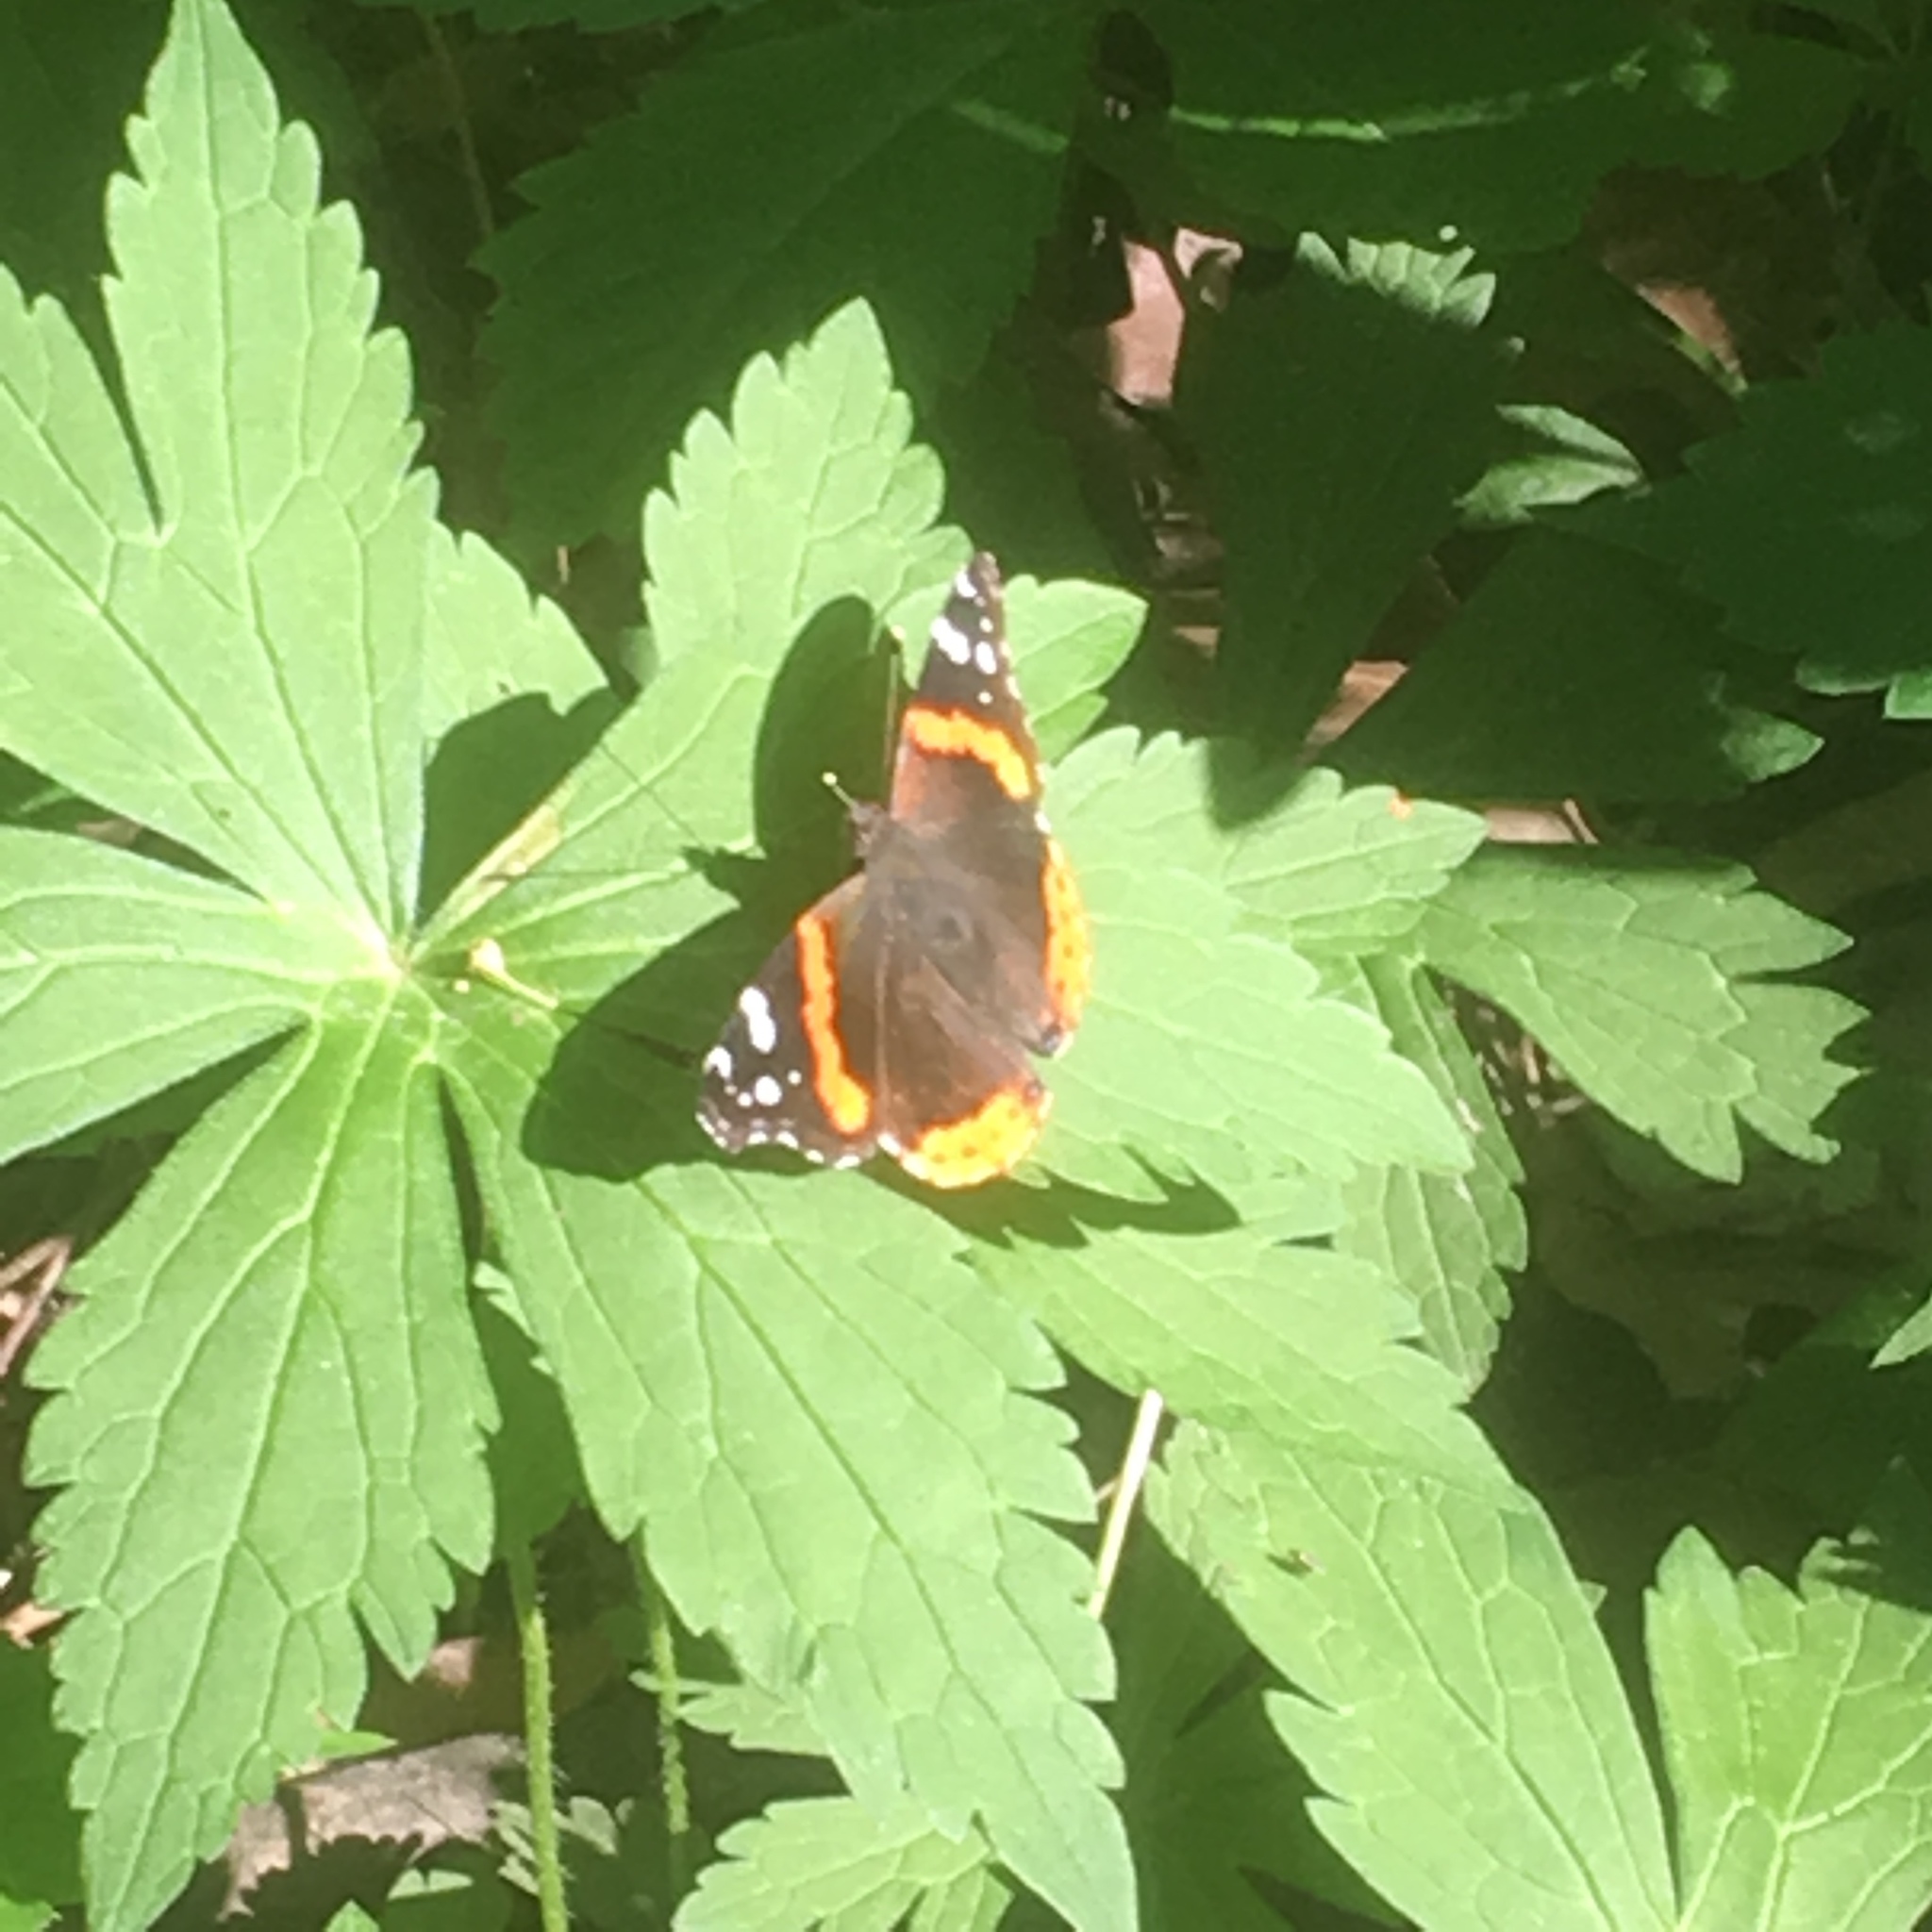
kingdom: Animalia
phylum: Arthropoda
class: Insecta
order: Lepidoptera
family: Nymphalidae
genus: Vanessa
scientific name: Vanessa atalanta
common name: Red admiral
